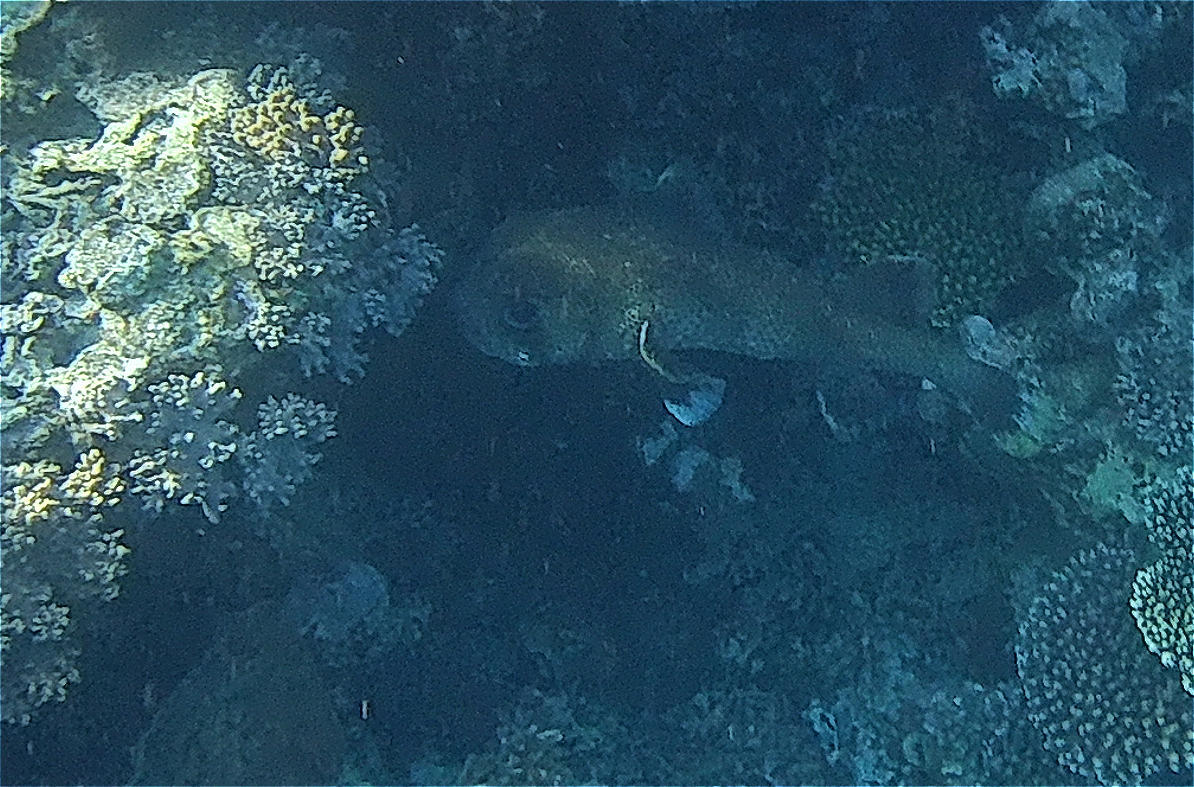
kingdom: Animalia
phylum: Chordata
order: Tetraodontiformes
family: Diodontidae
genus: Diodon
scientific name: Diodon hystrix
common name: Giant porcupinefish
